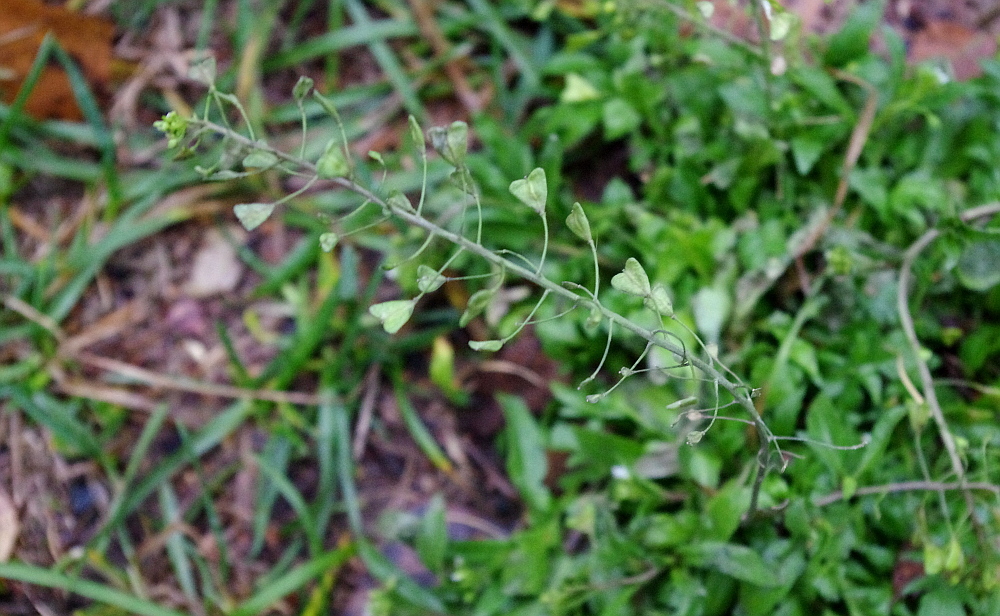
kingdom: Plantae
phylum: Tracheophyta
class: Magnoliopsida
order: Brassicales
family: Brassicaceae
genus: Capsella
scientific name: Capsella bursa-pastoris
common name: Shepherd's purse
